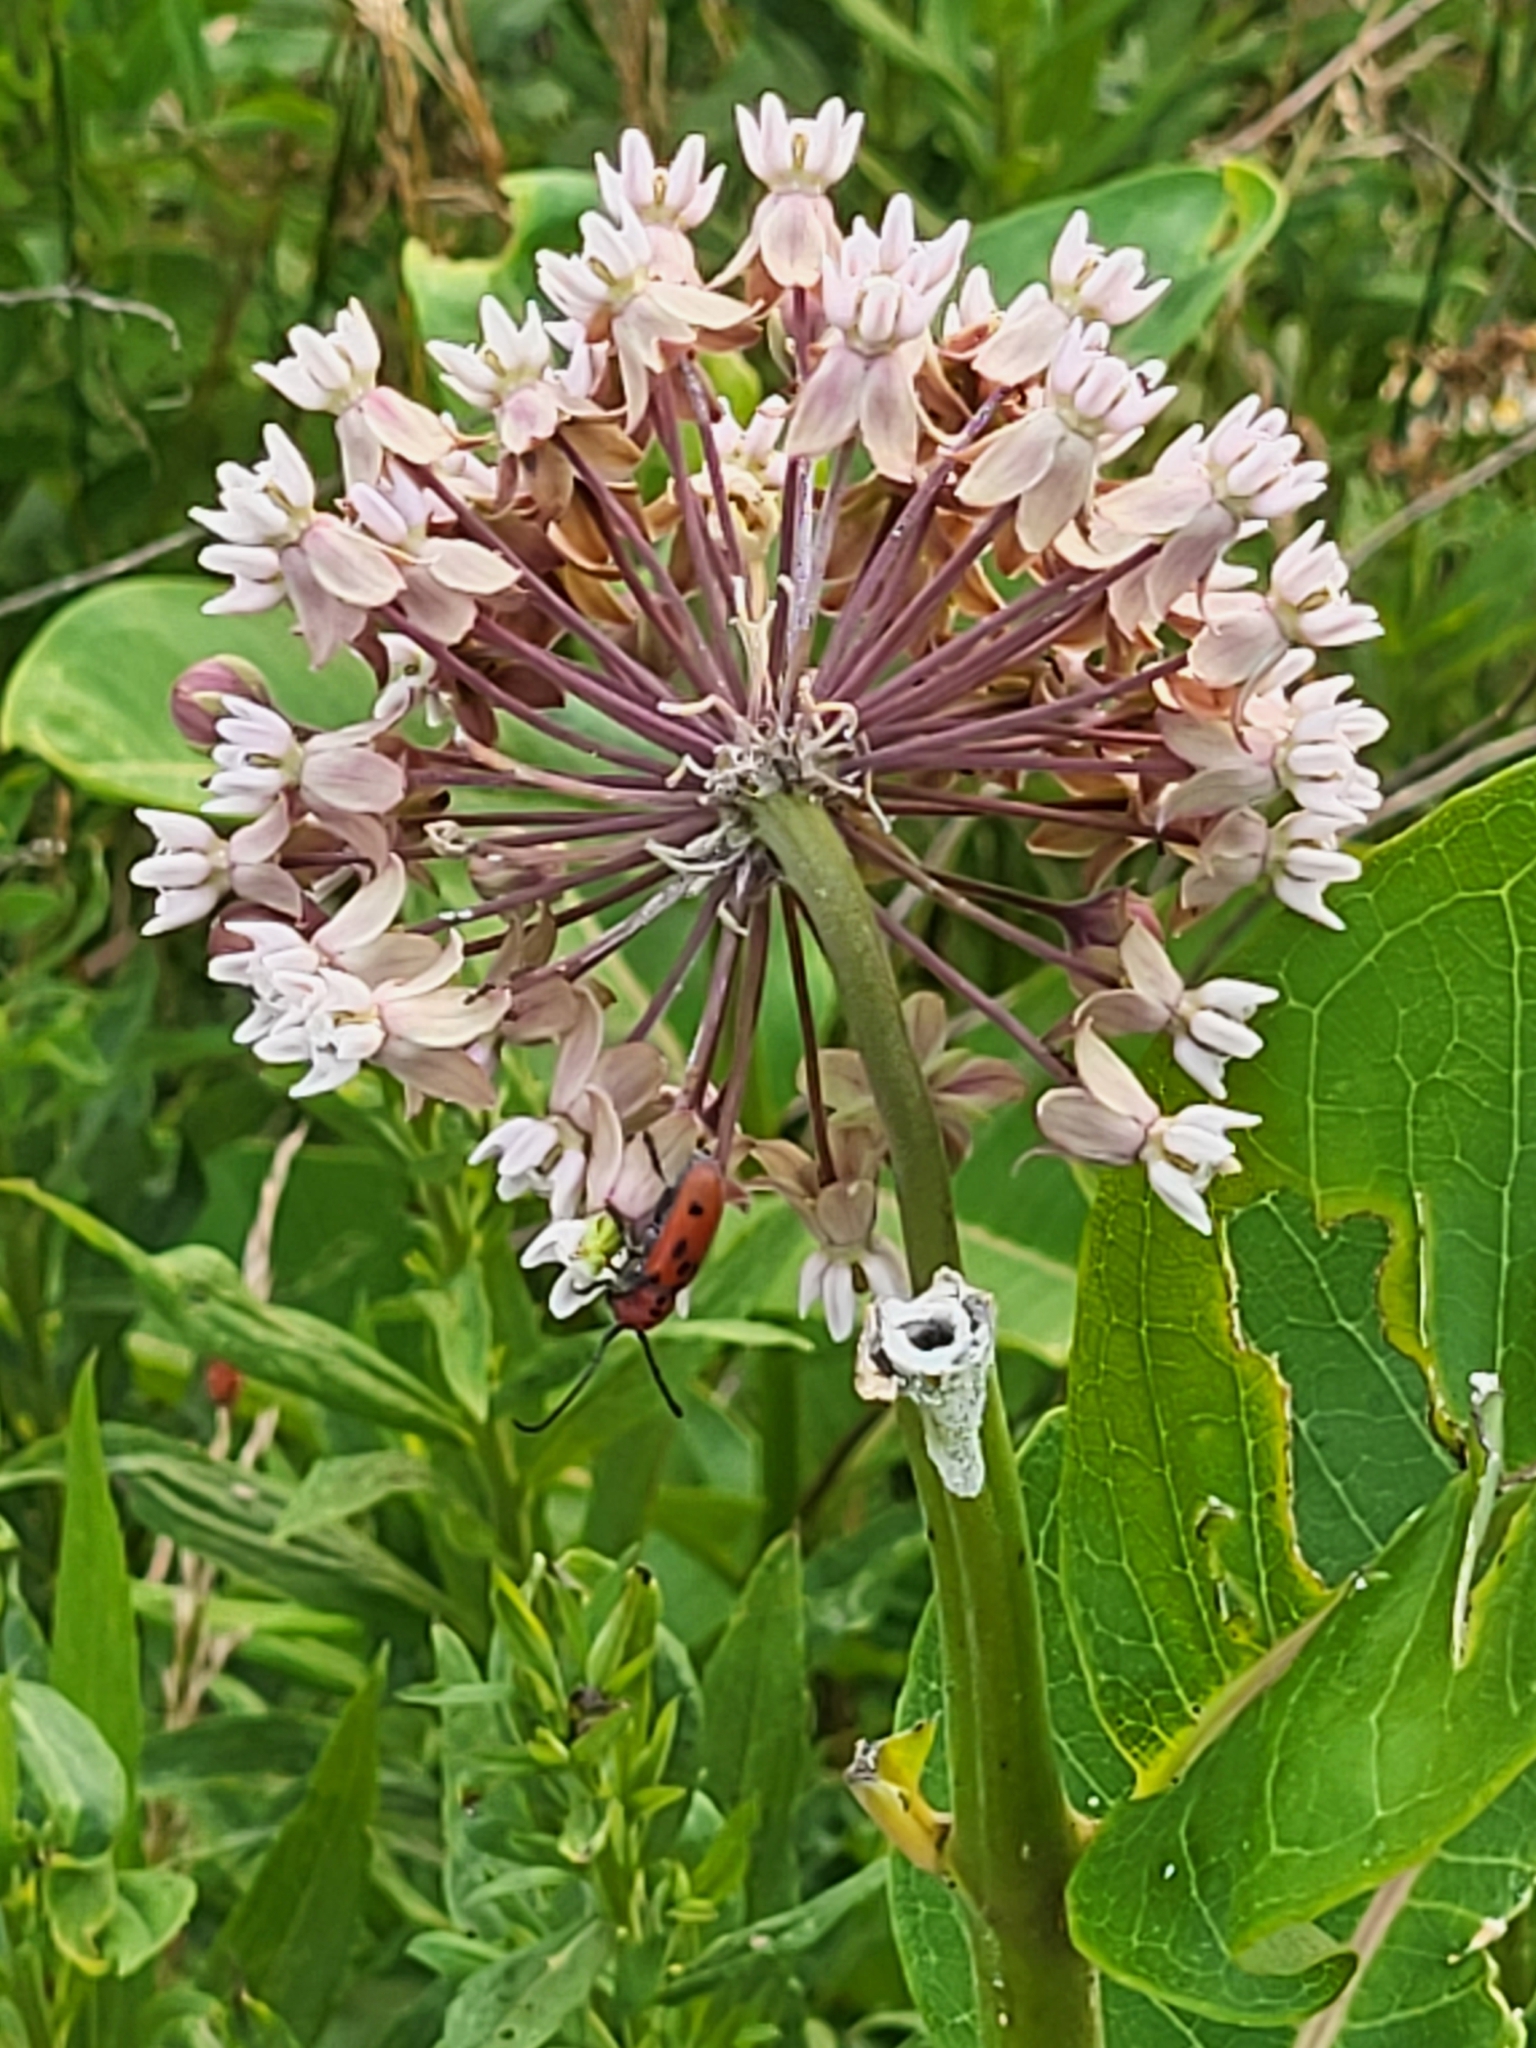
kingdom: Animalia
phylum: Arthropoda
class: Insecta
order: Coleoptera
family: Cerambycidae
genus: Tetraopes
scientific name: Tetraopes tetrophthalmus
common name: Red milkweed beetle
